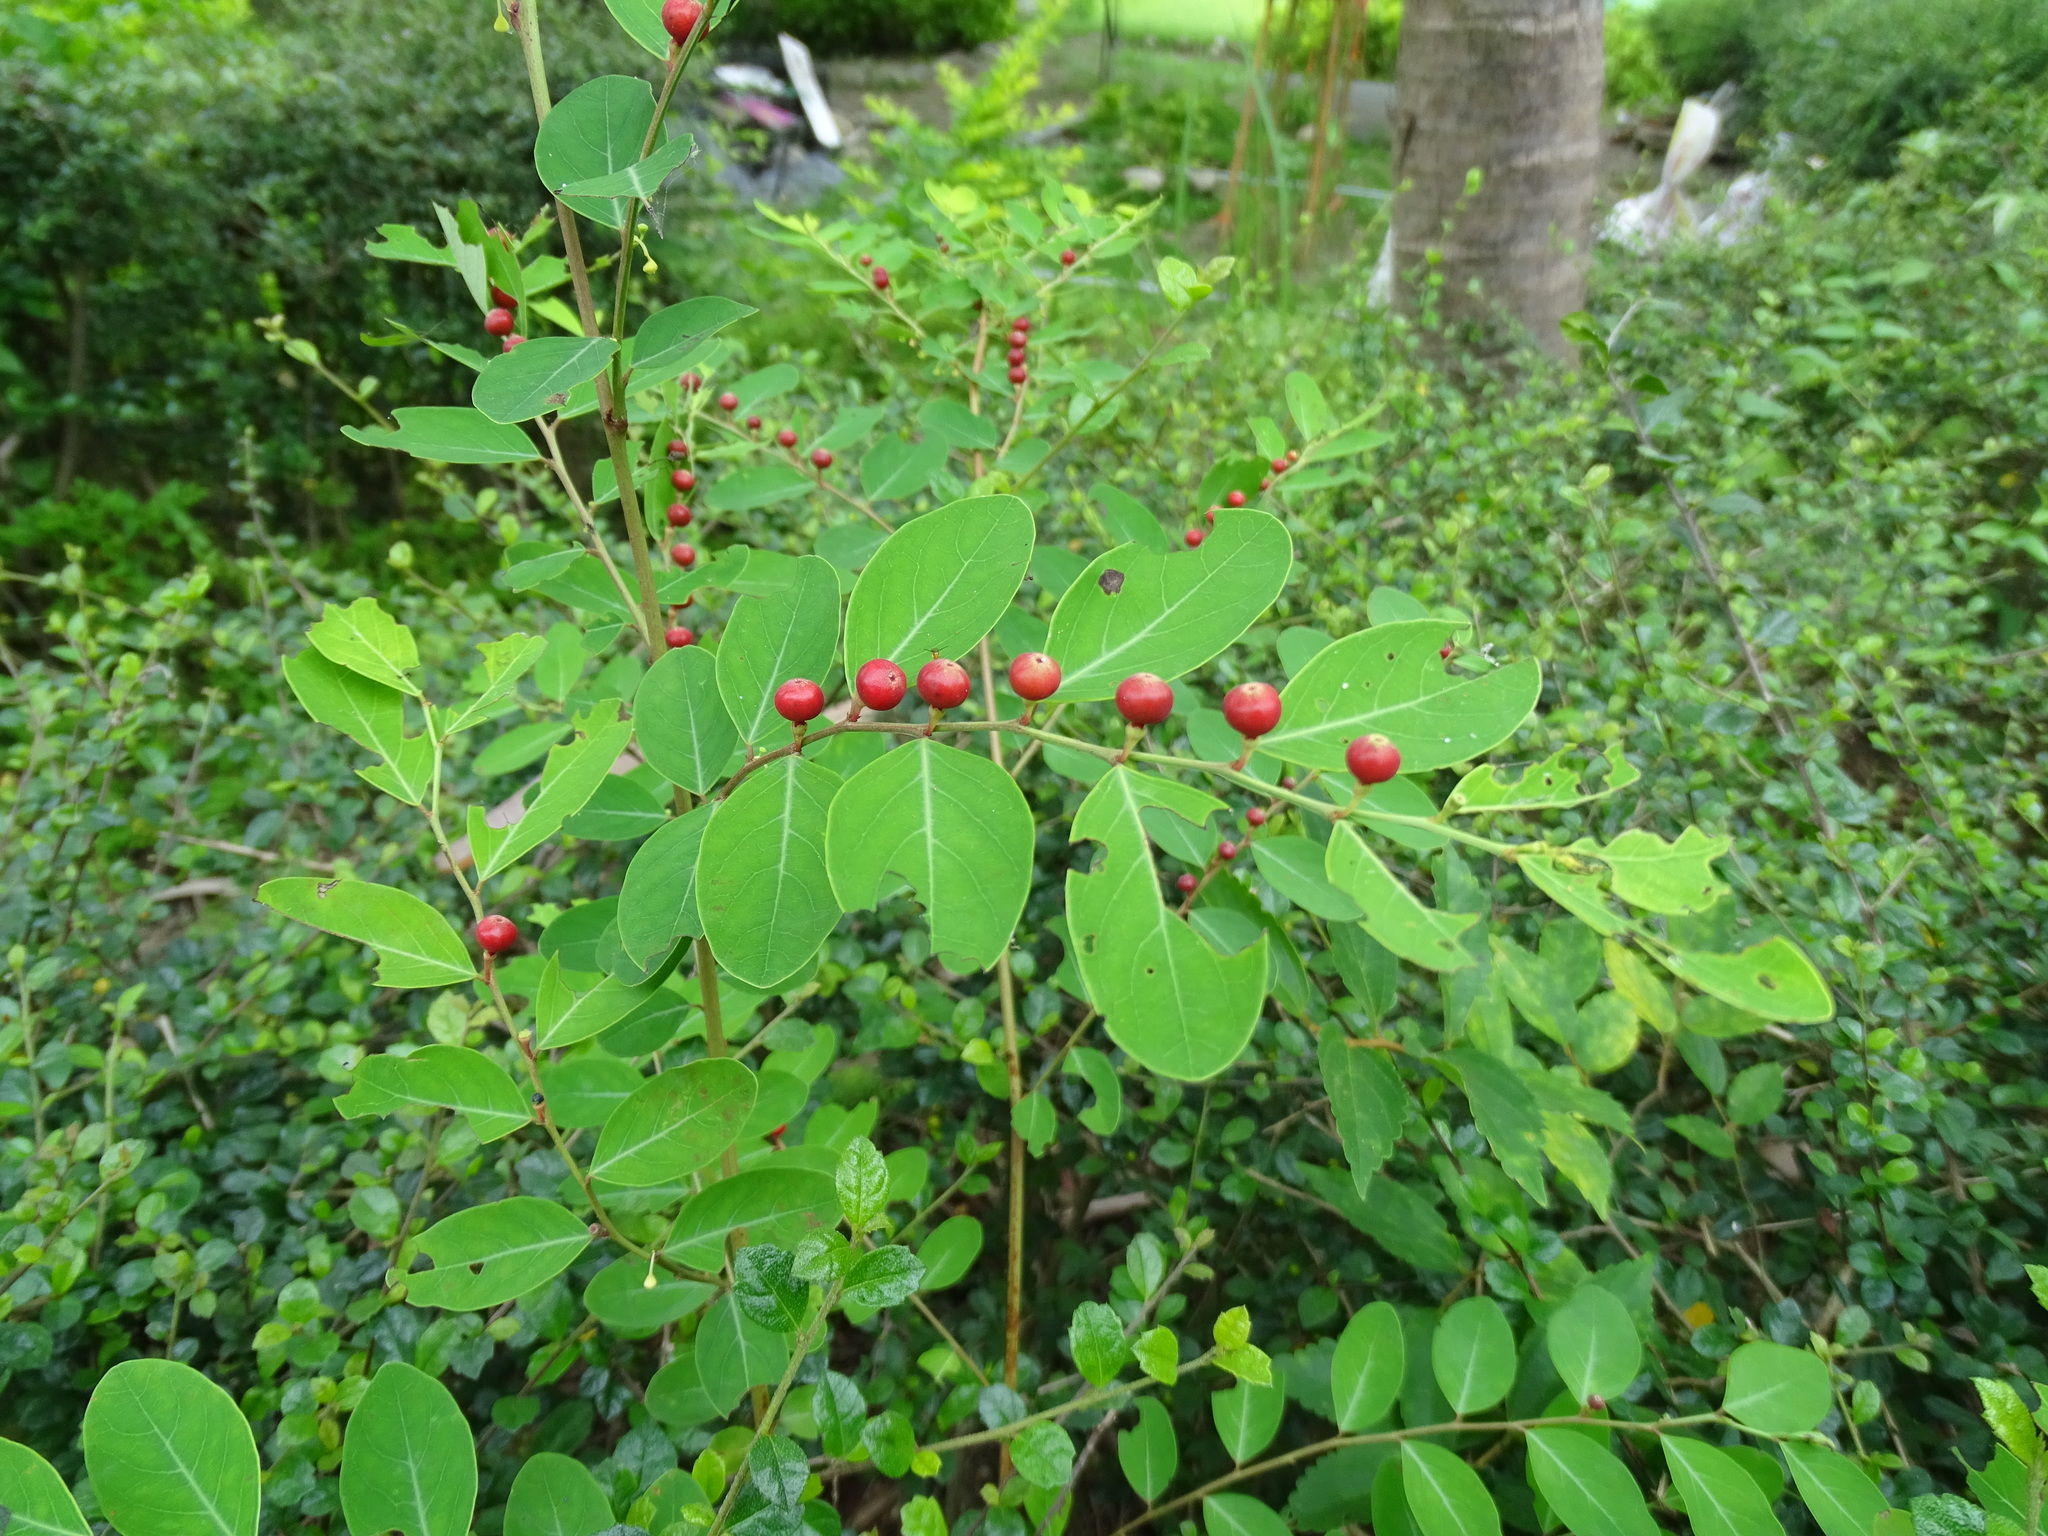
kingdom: Plantae
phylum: Tracheophyta
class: Magnoliopsida
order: Malpighiales
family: Phyllanthaceae
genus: Breynia
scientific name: Breynia vitis-idaea
